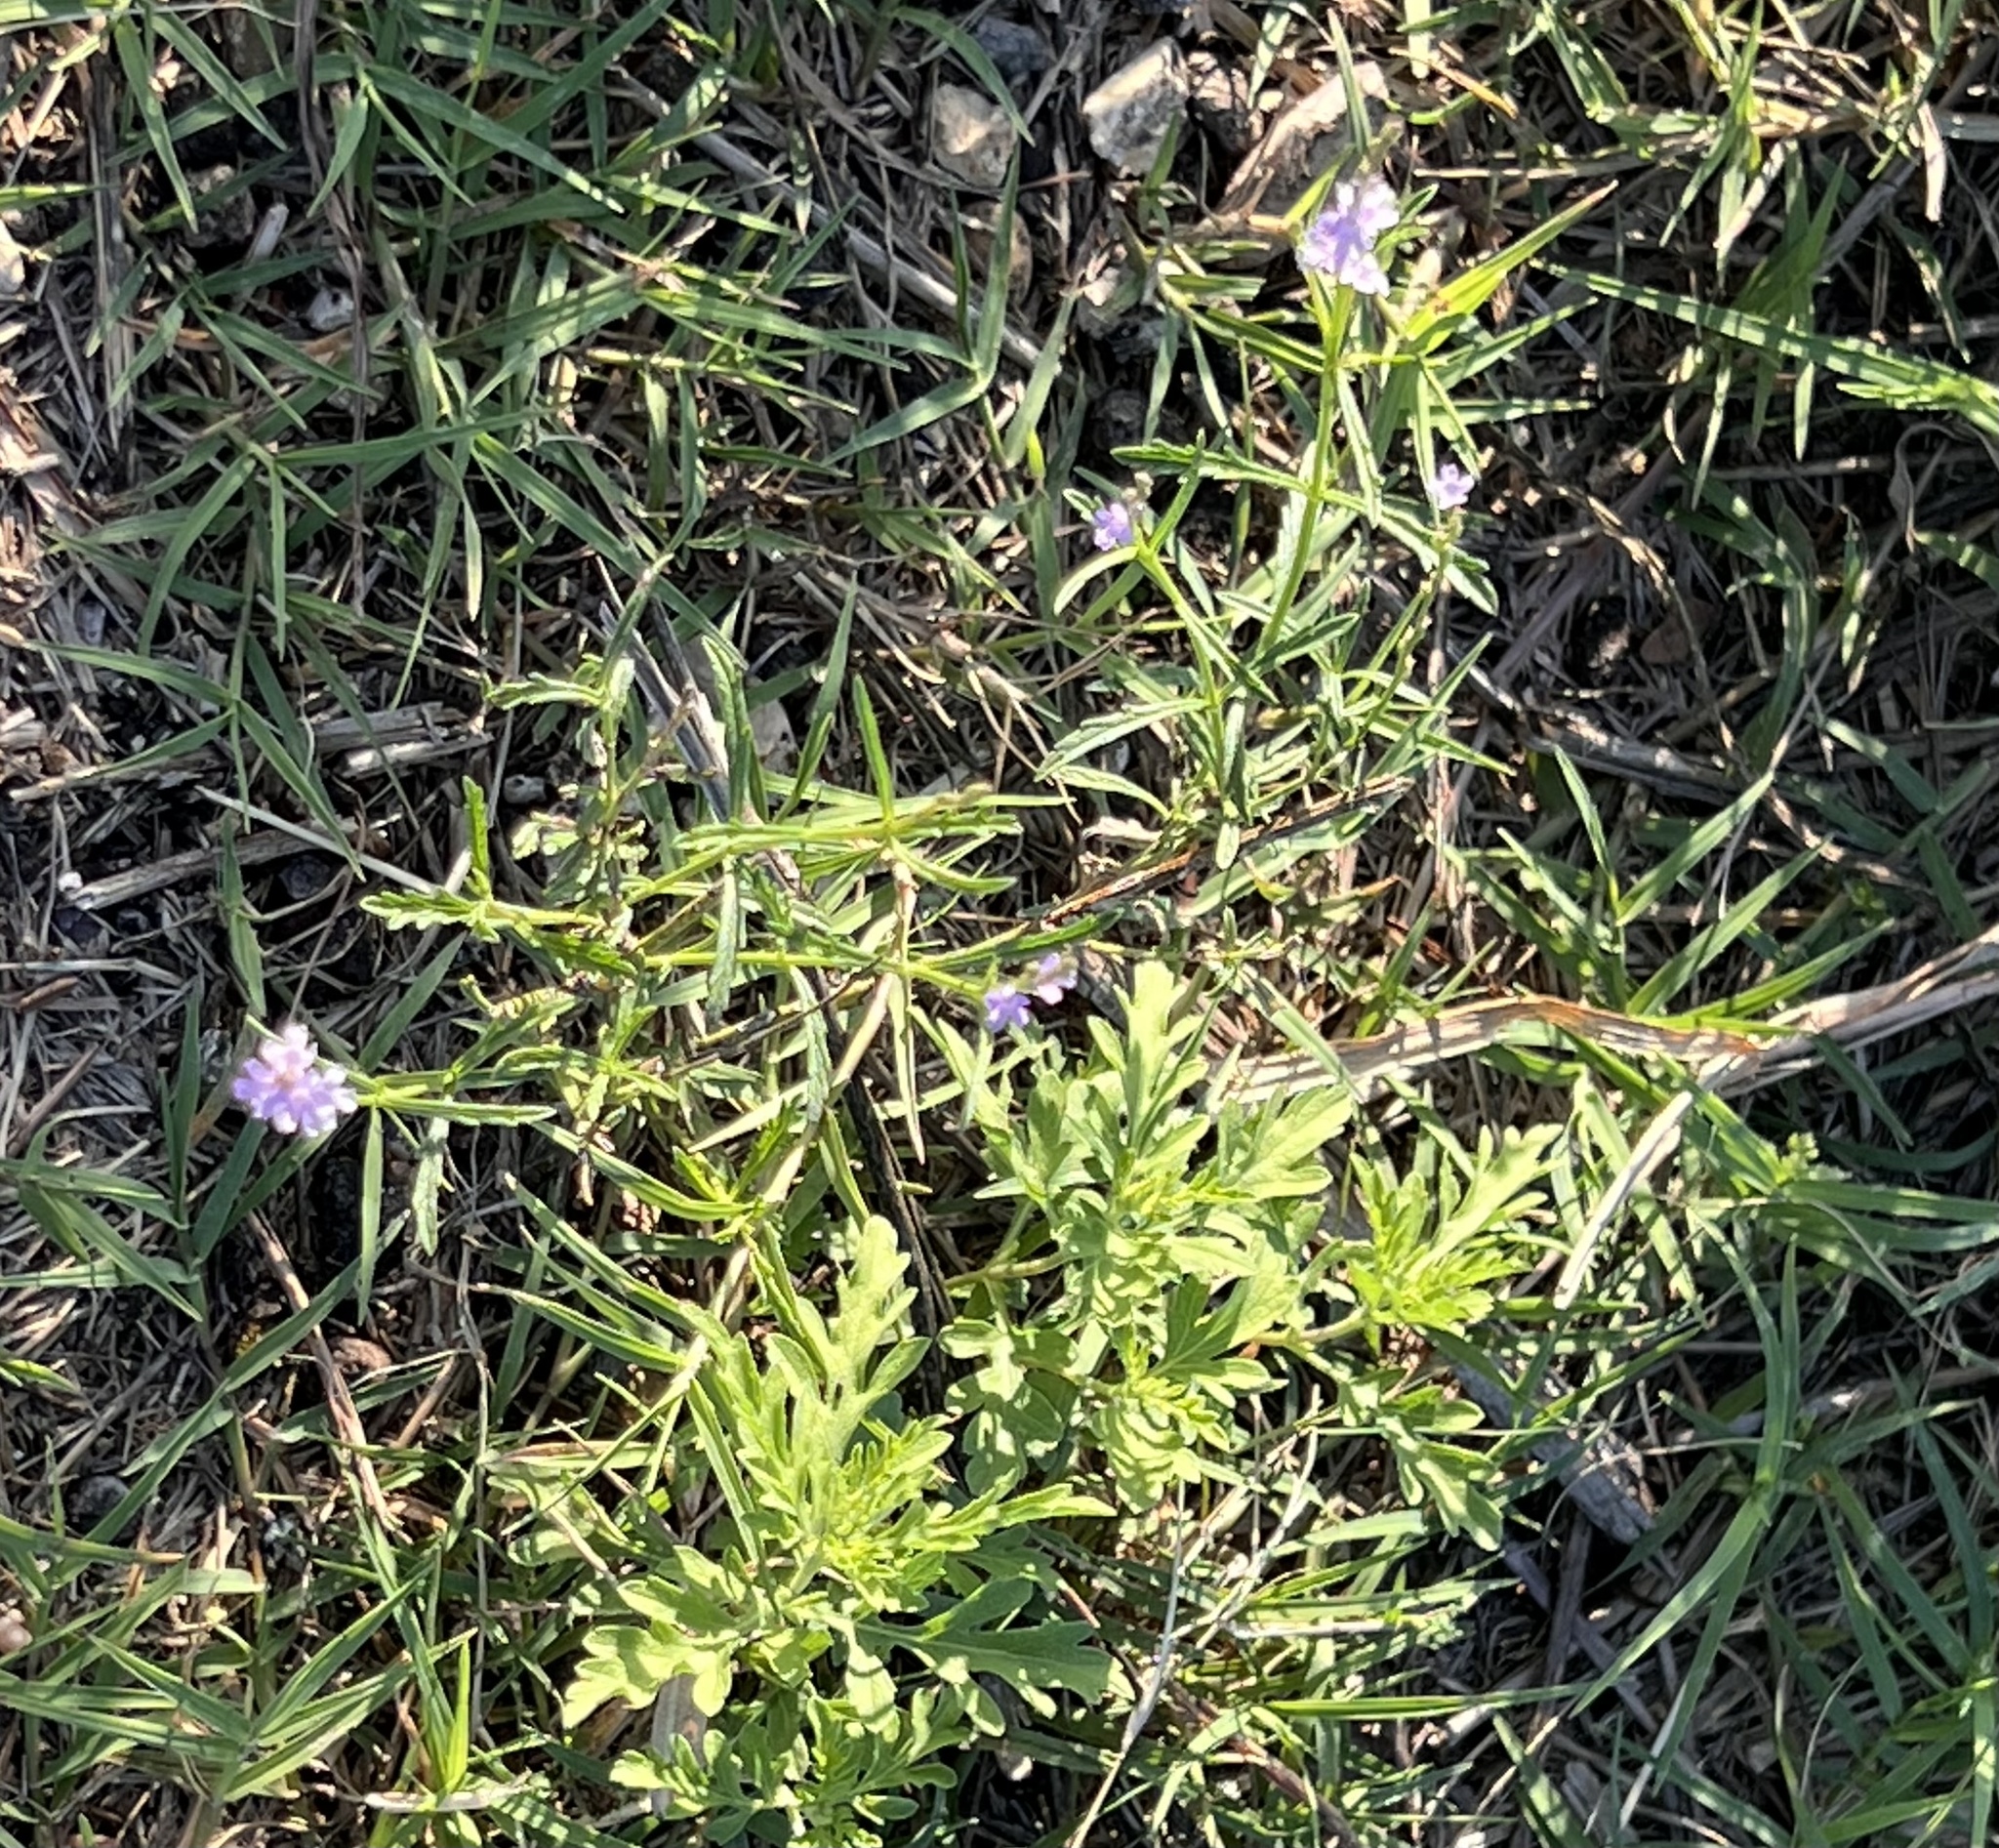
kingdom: Plantae
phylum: Tracheophyta
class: Magnoliopsida
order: Lamiales
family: Verbenaceae
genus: Verbena
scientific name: Verbena halei
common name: Texas vervain
